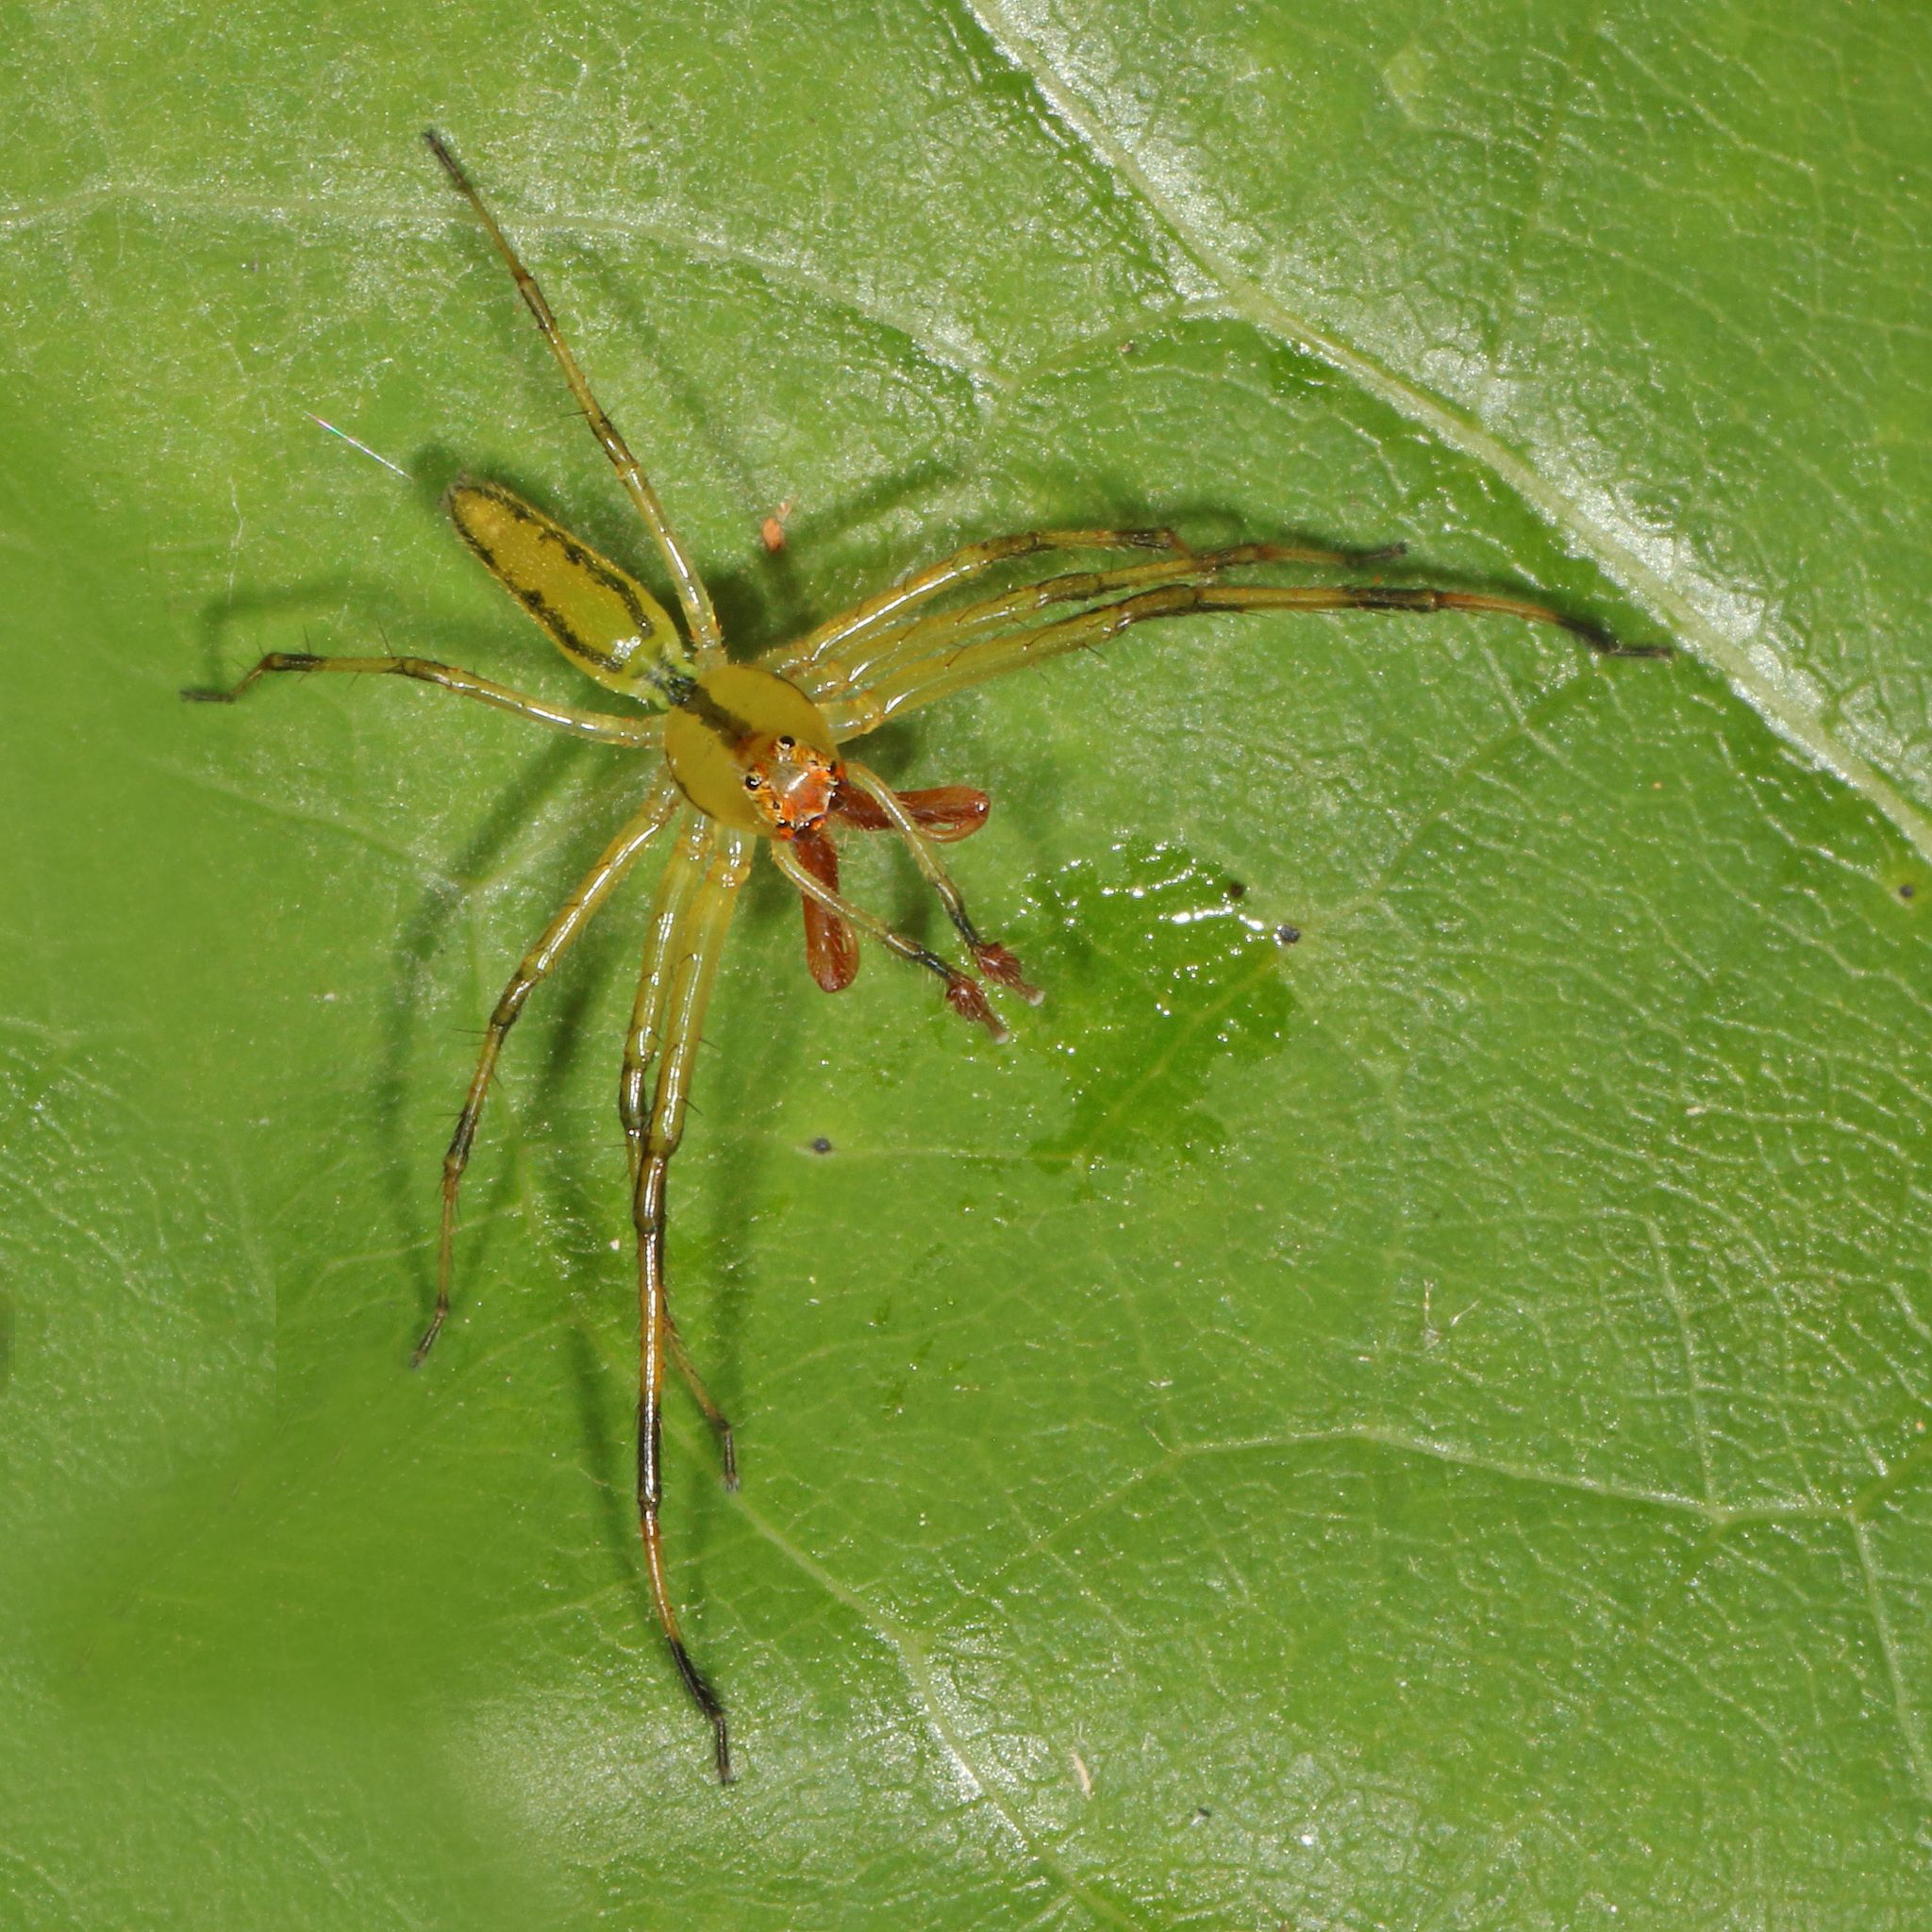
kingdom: Animalia
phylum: Arthropoda
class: Arachnida
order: Araneae
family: Salticidae
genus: Lyssomanes
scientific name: Lyssomanes viridis
